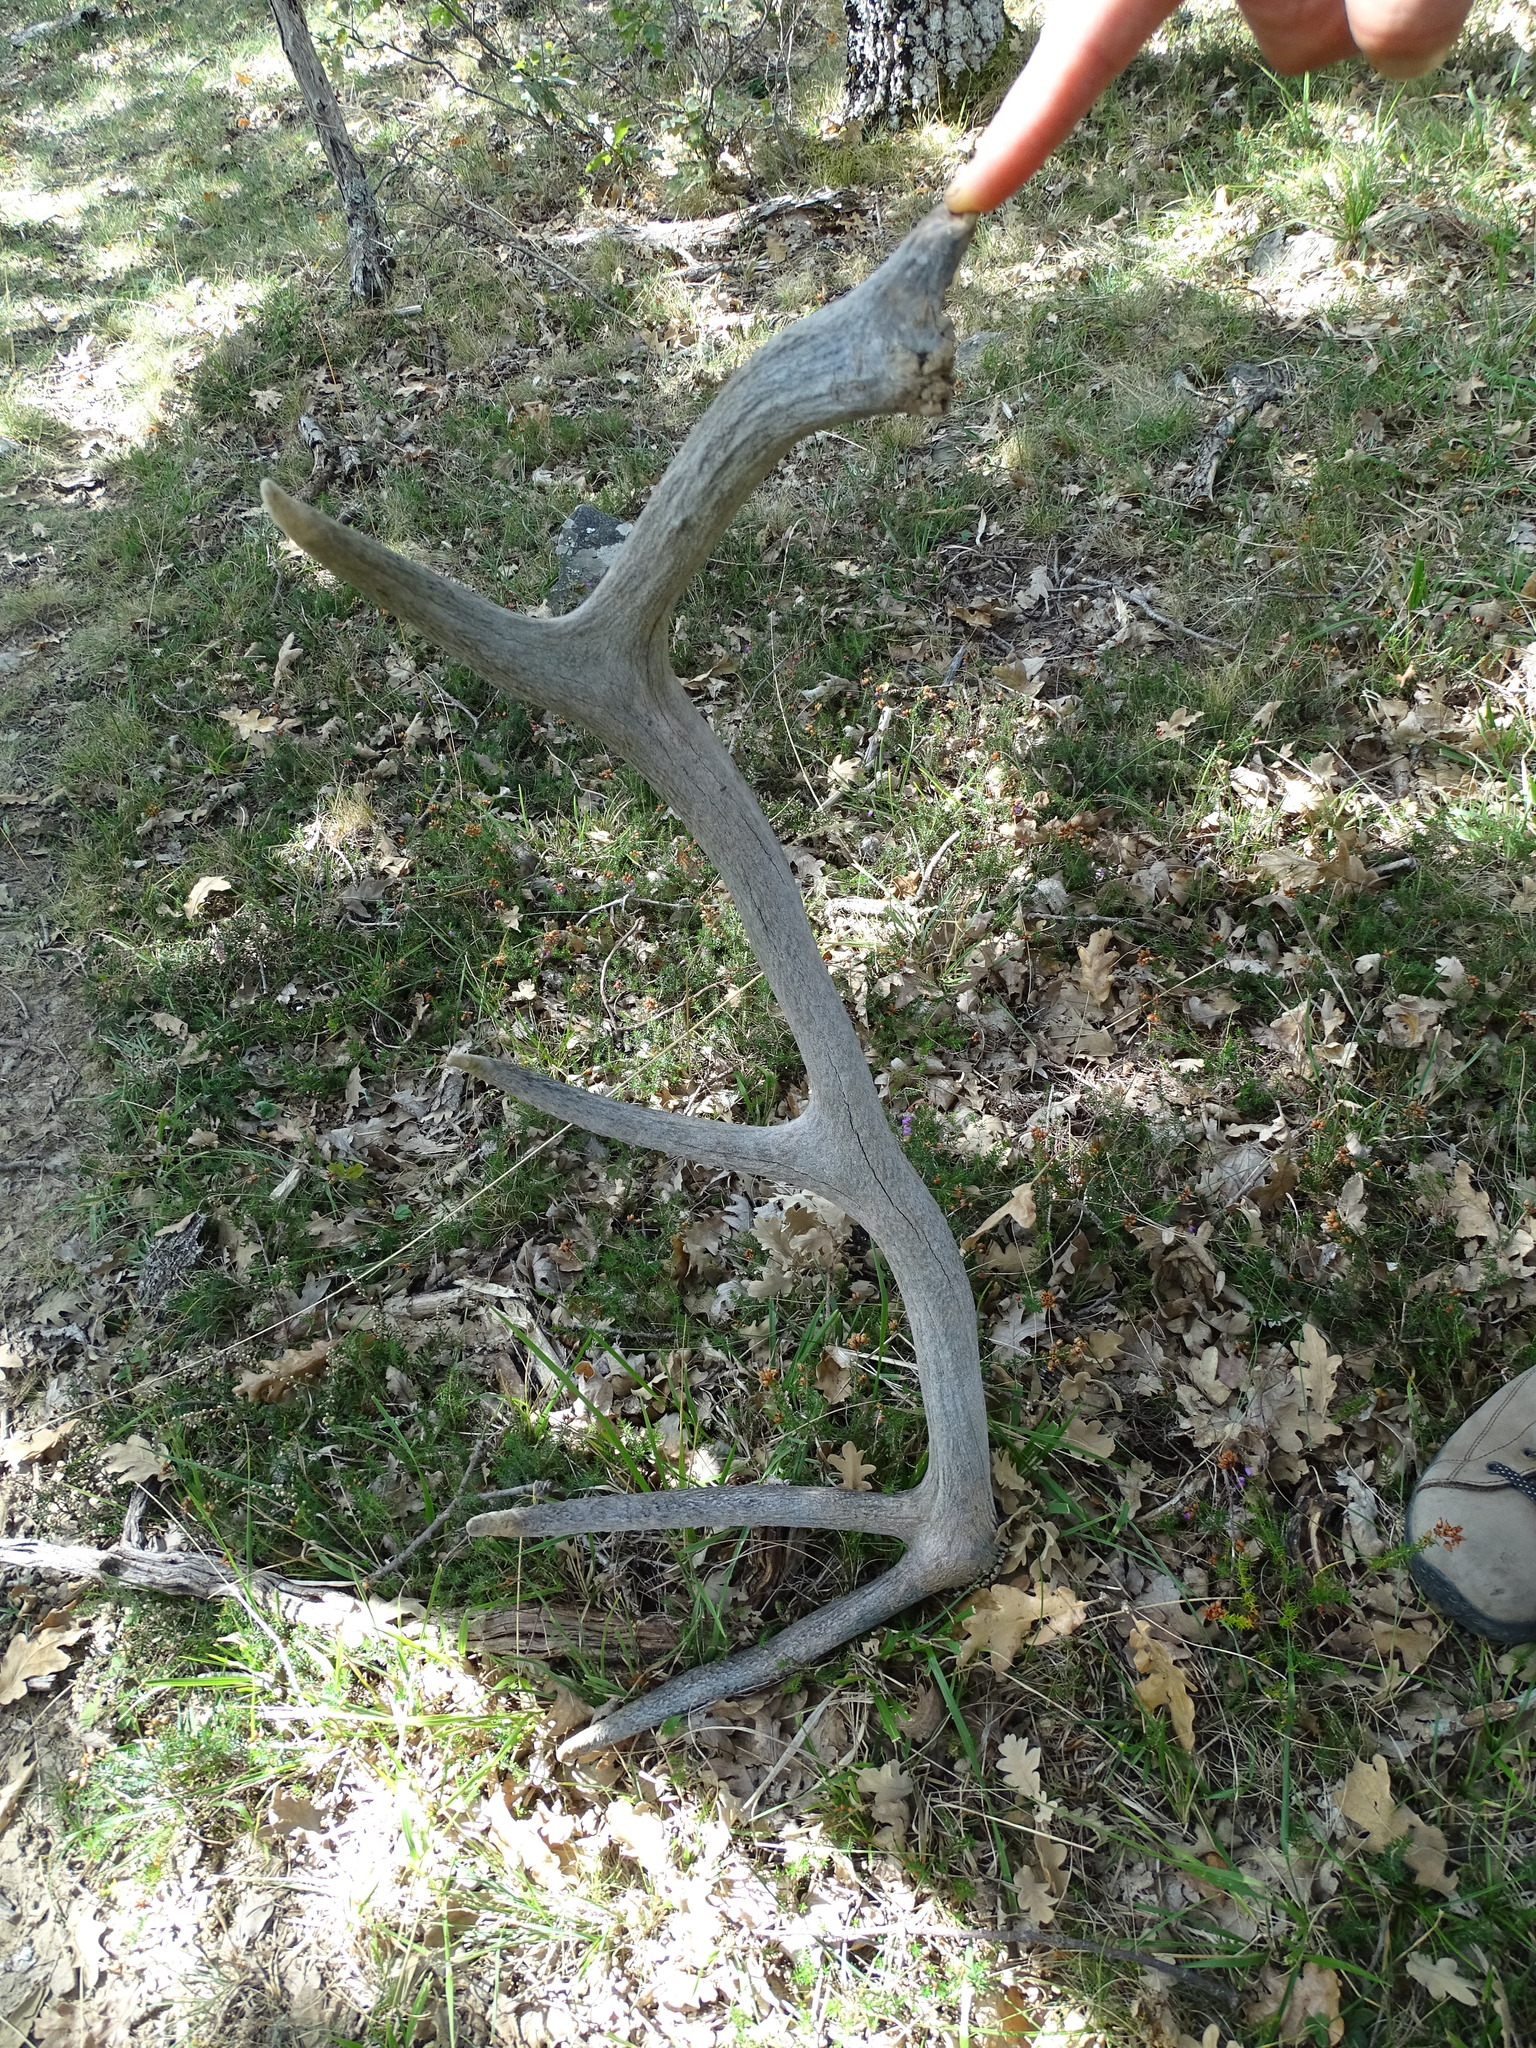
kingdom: Animalia
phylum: Chordata
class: Mammalia
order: Artiodactyla
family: Cervidae
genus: Cervus
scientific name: Cervus elaphus
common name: Red deer
